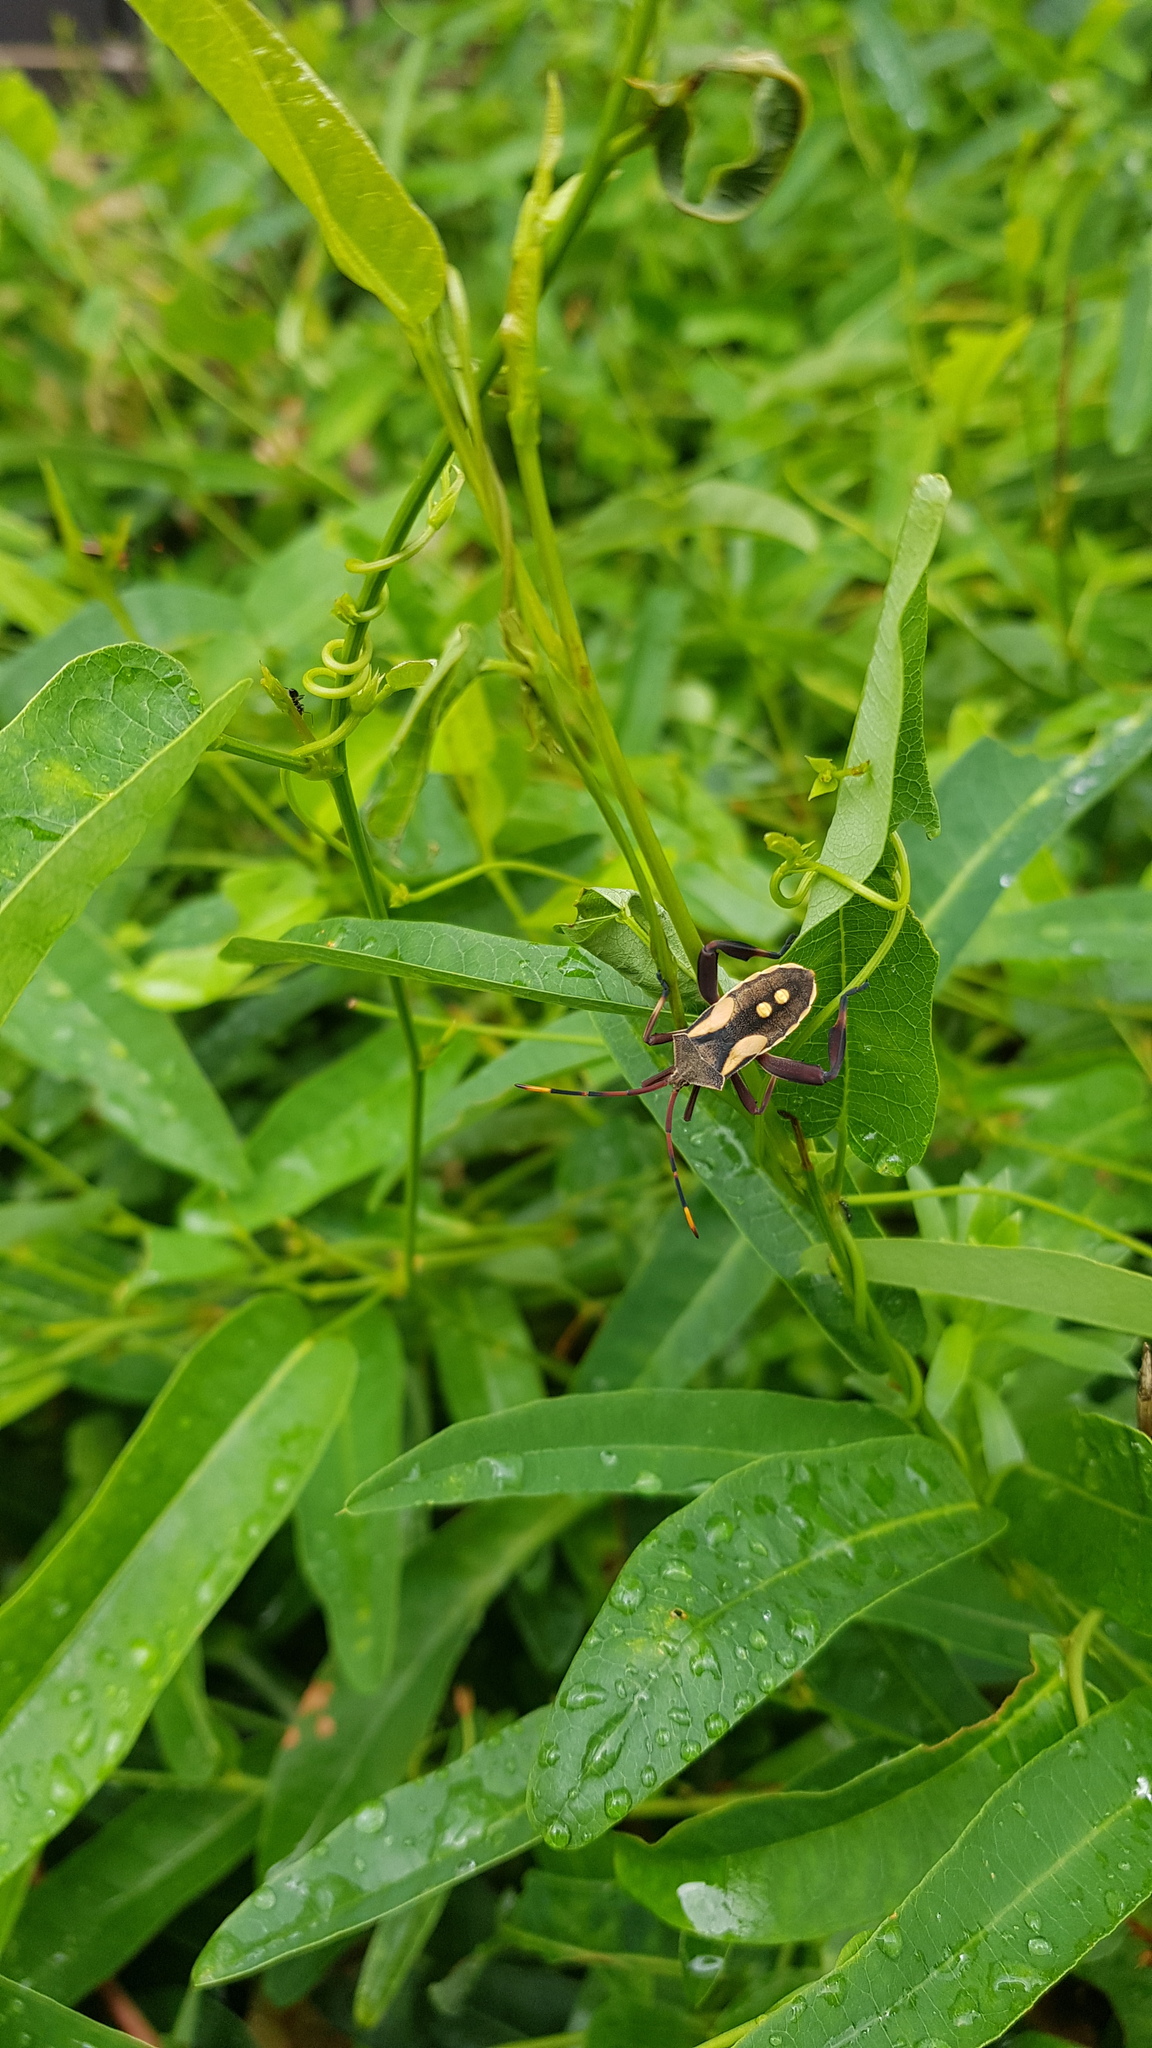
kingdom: Animalia
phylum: Arthropoda
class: Insecta
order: Hemiptera
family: Coreidae
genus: Mictis
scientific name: Mictis profana
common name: Crusader bug
